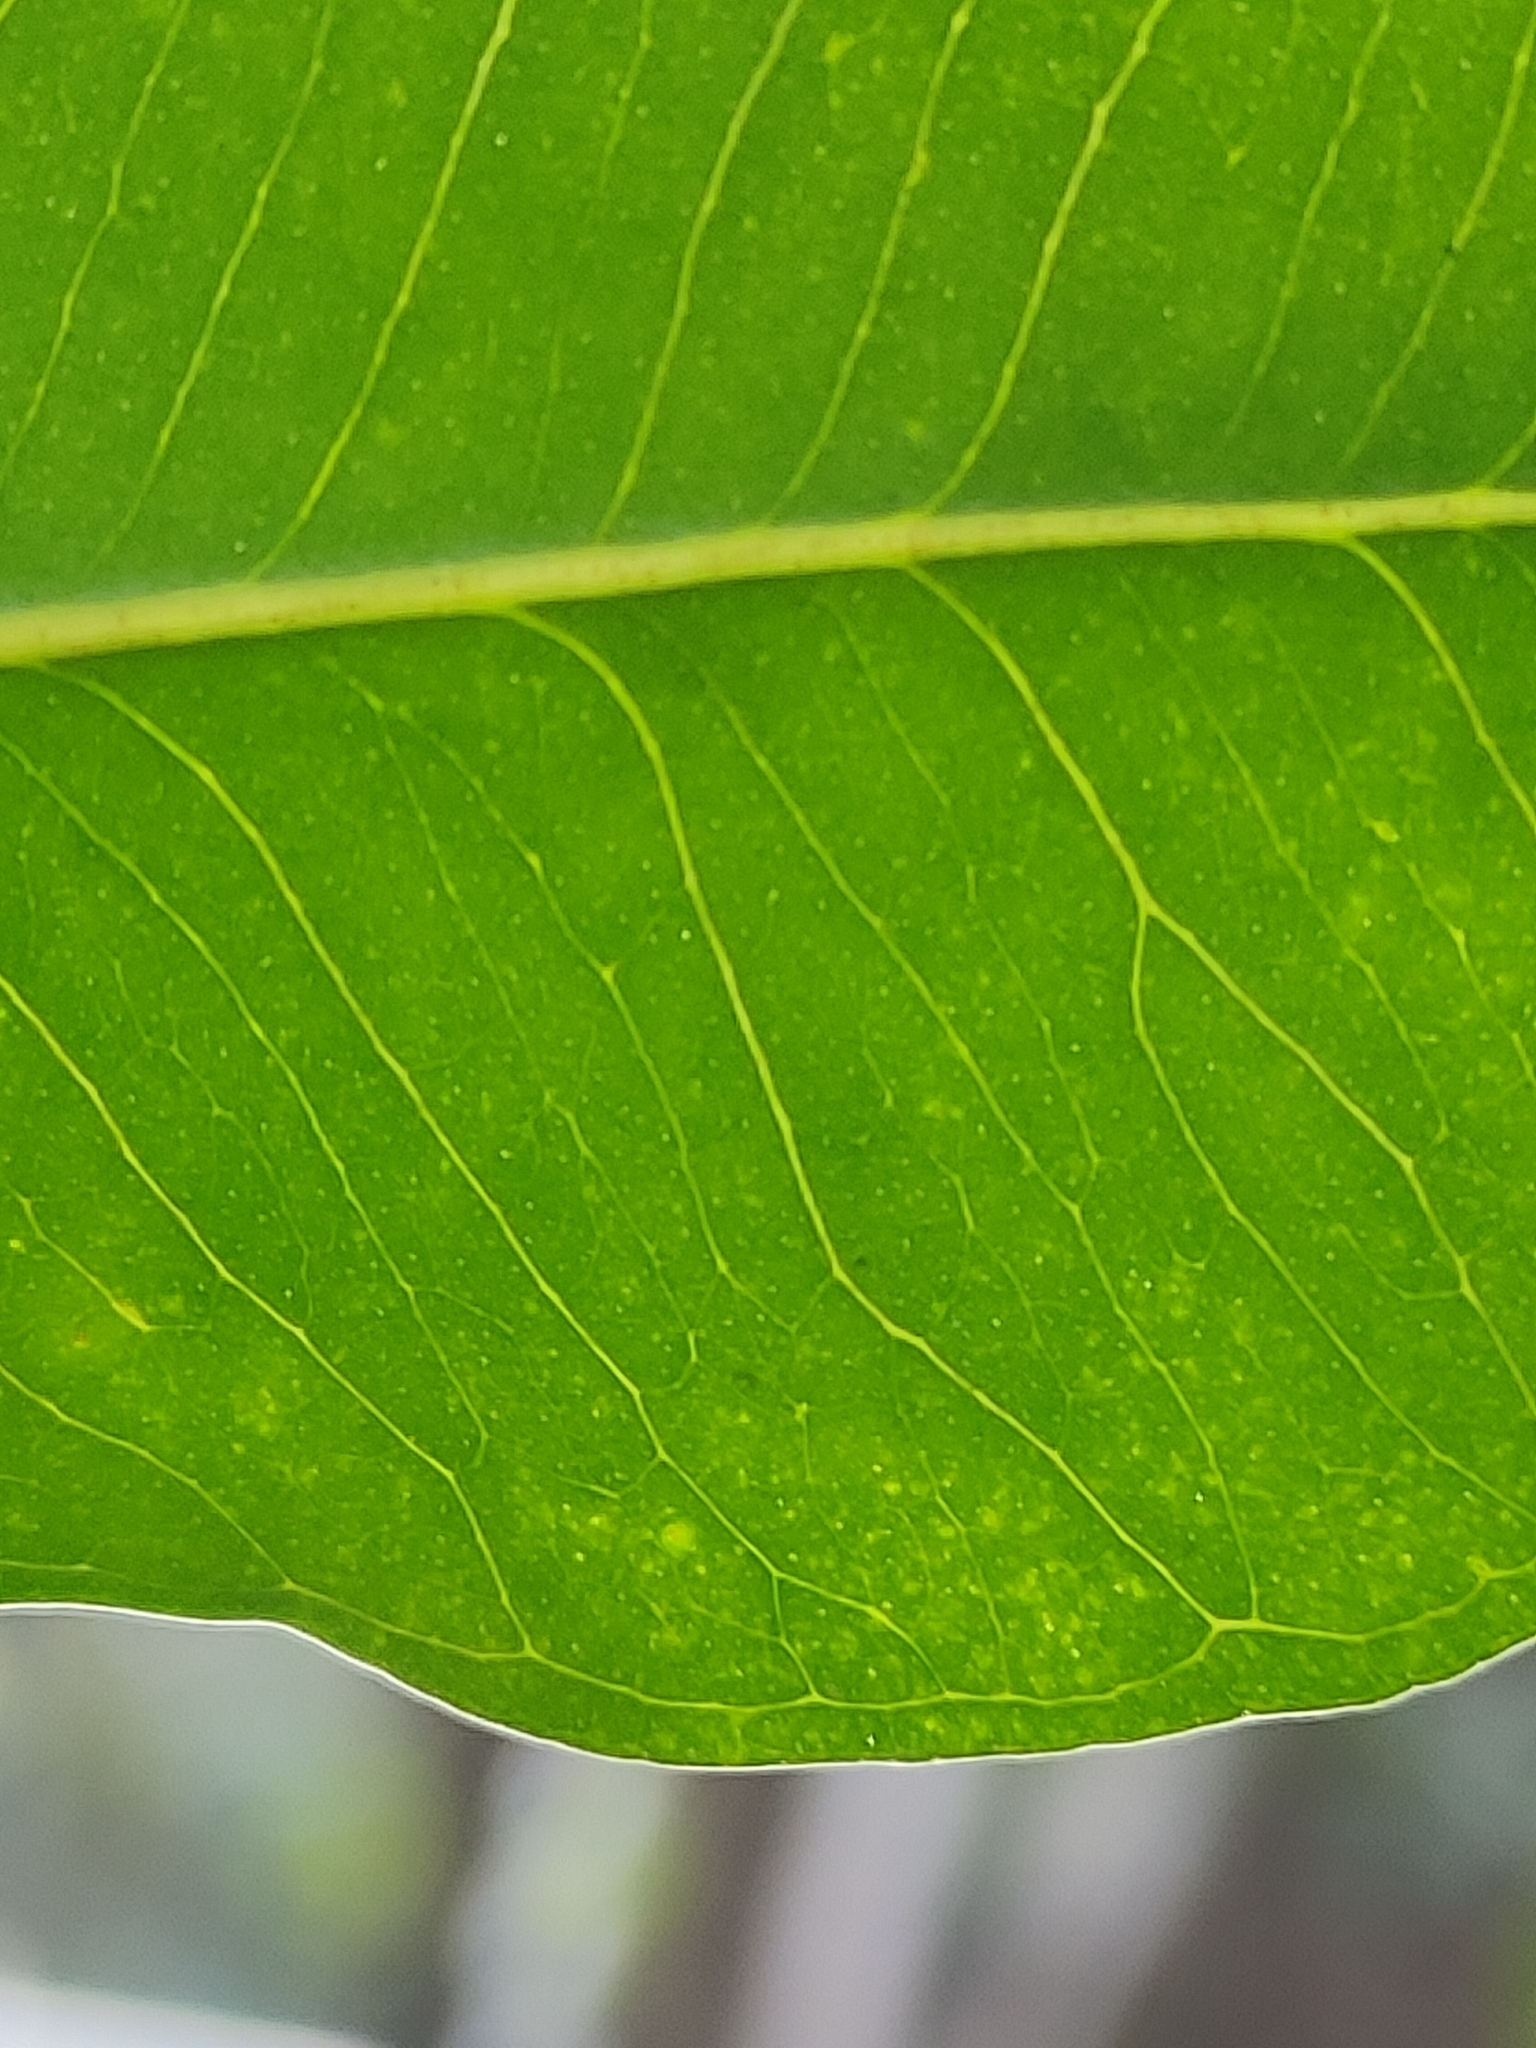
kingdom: Plantae
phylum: Tracheophyta
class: Magnoliopsida
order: Myrtales
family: Myrtaceae
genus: Syzygium
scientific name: Syzygium floribundum
